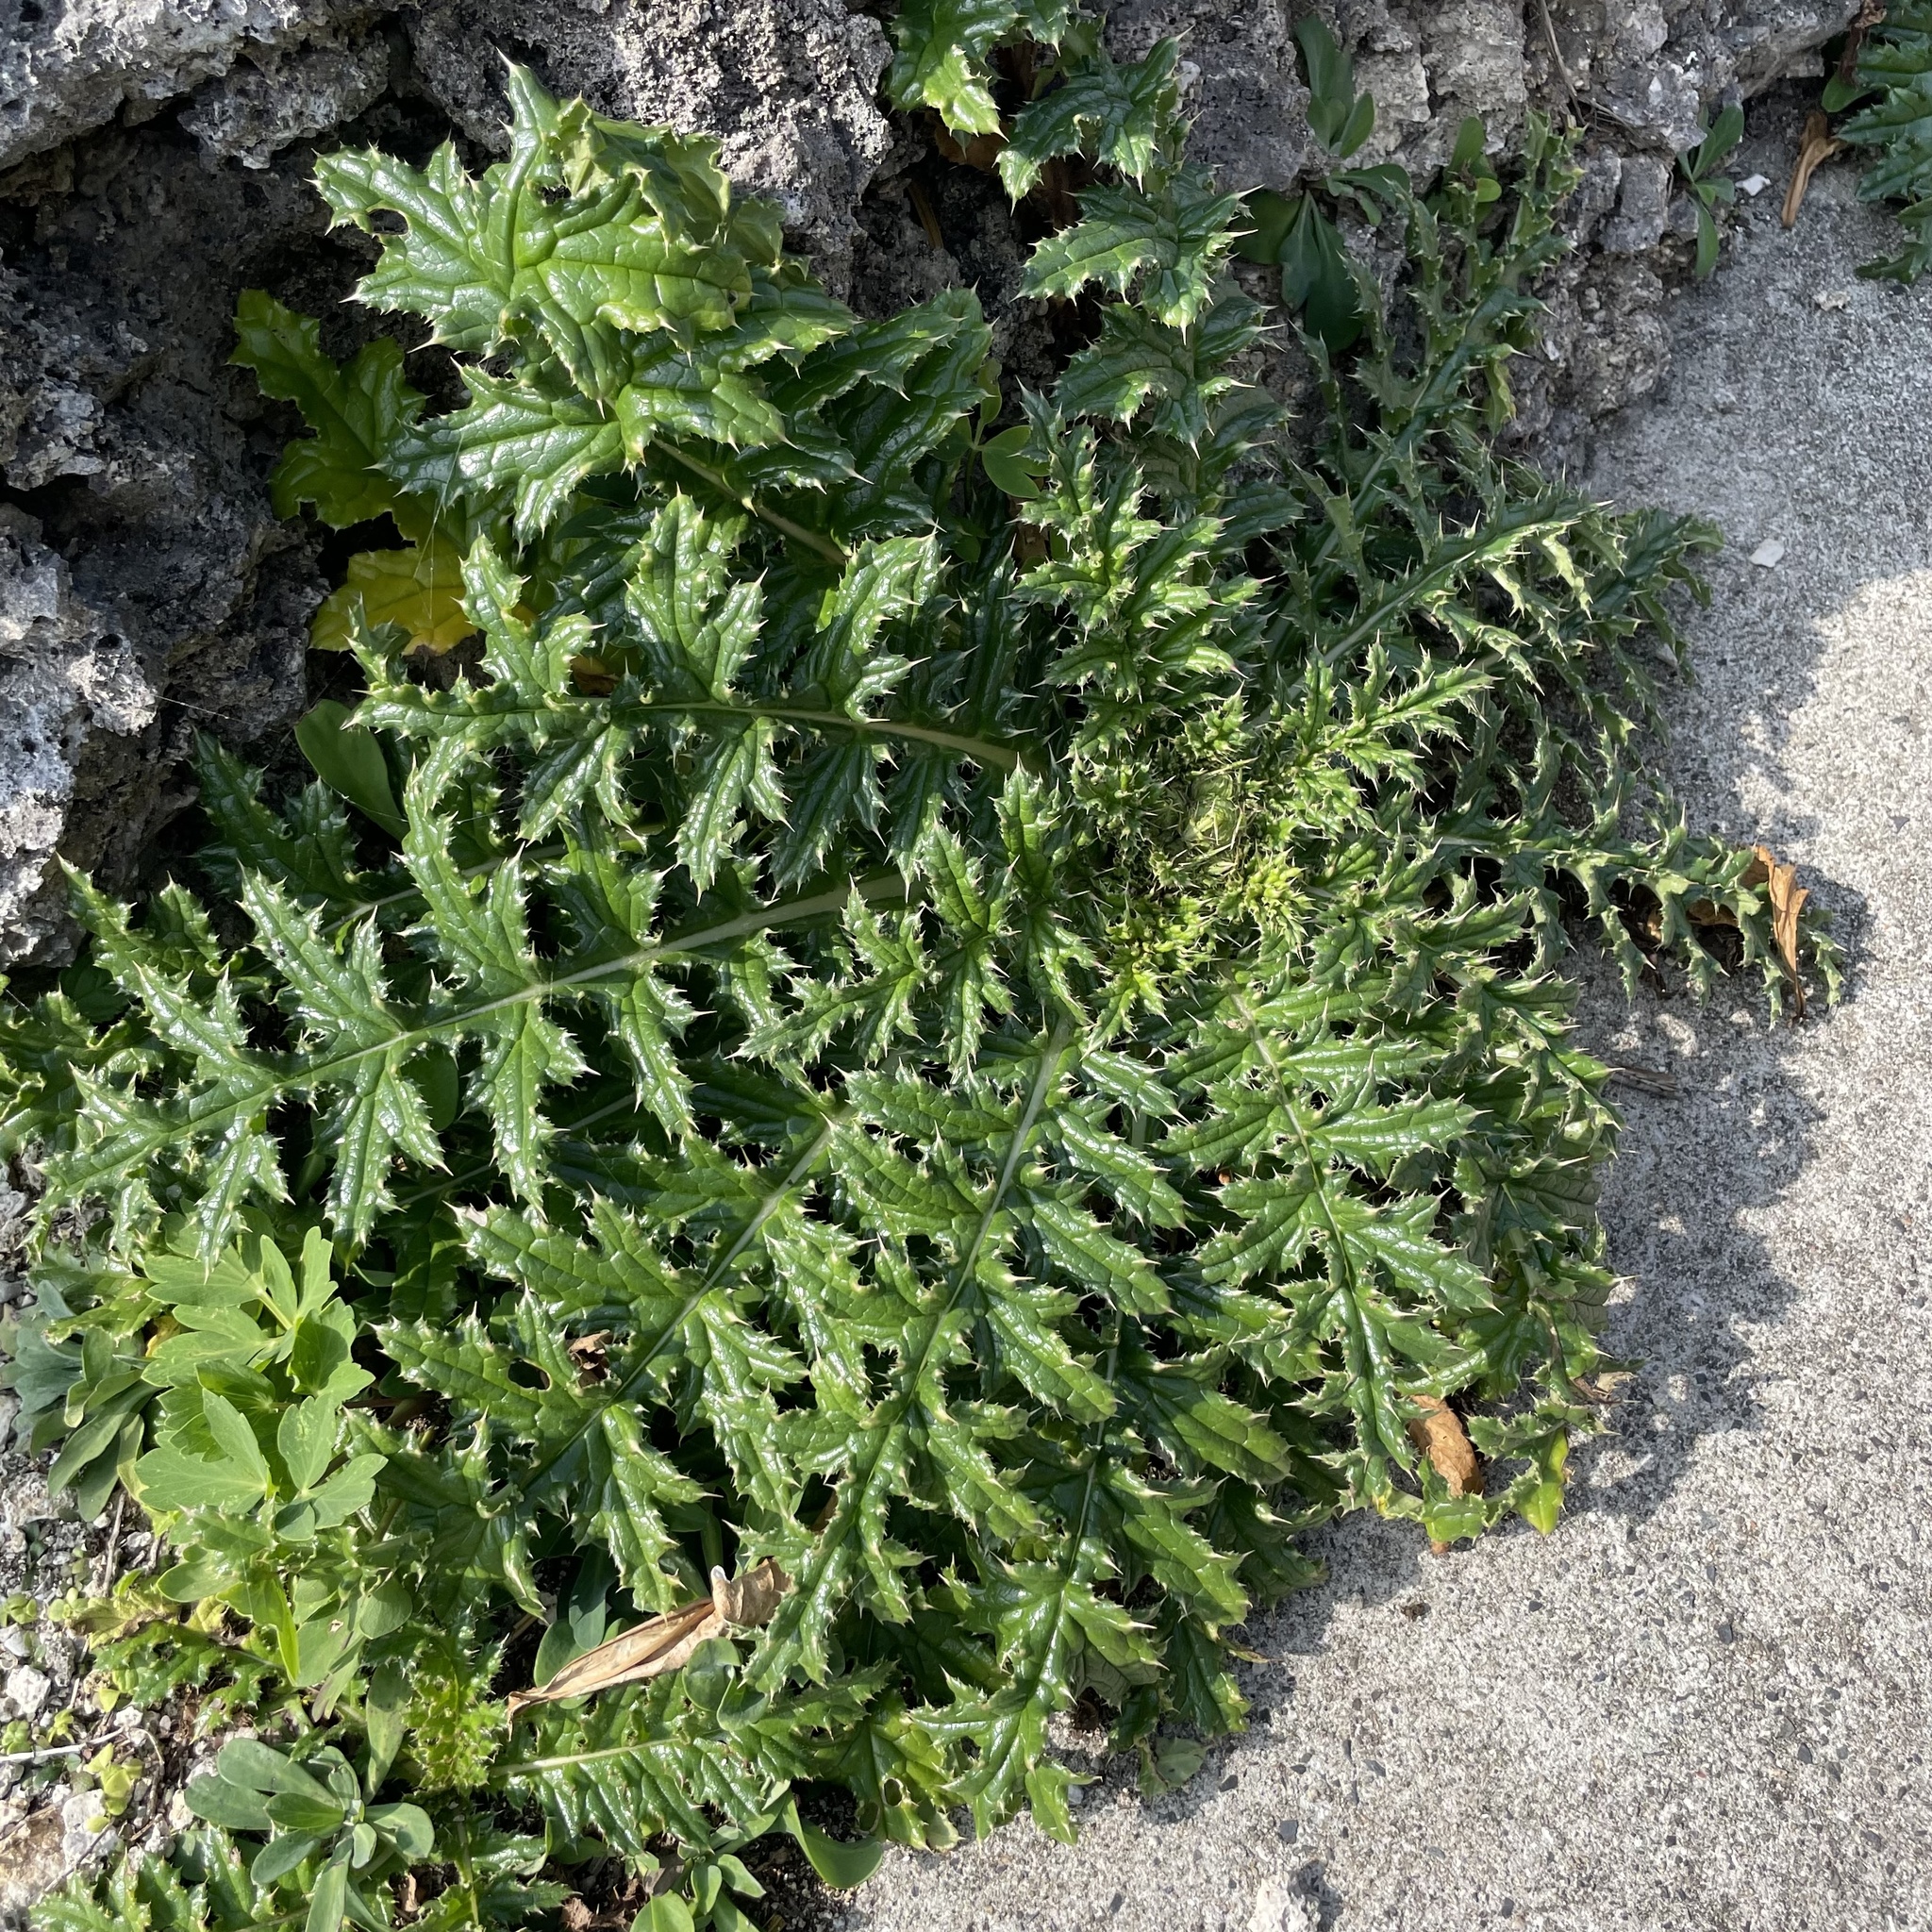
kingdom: Plantae
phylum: Tracheophyta
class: Magnoliopsida
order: Asterales
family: Asteraceae
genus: Cirsium
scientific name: Cirsium brevicaule
